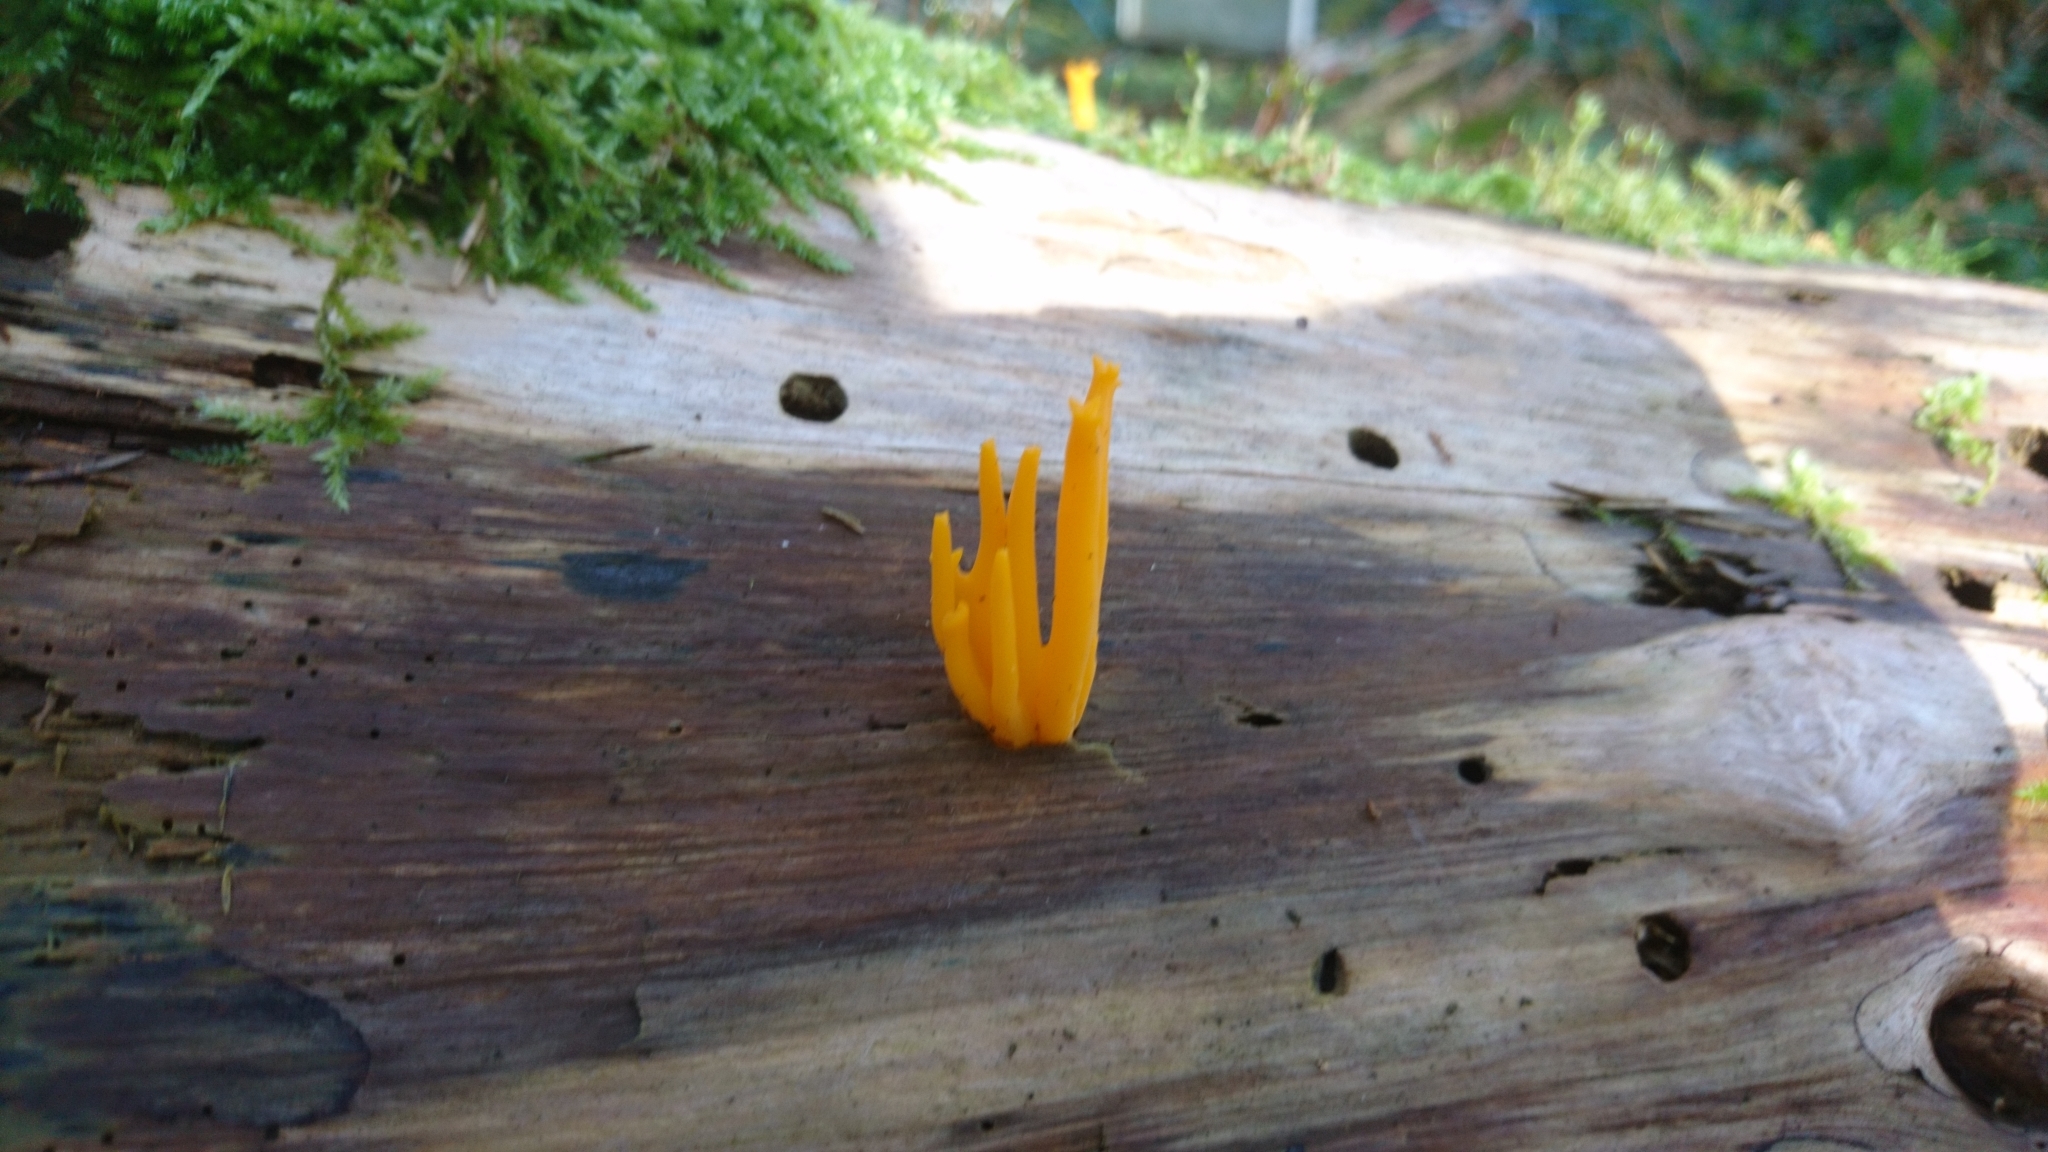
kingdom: Fungi
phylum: Basidiomycota
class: Dacrymycetes
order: Dacrymycetales
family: Dacrymycetaceae
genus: Calocera
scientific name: Calocera viscosa
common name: Yellow stagshorn
